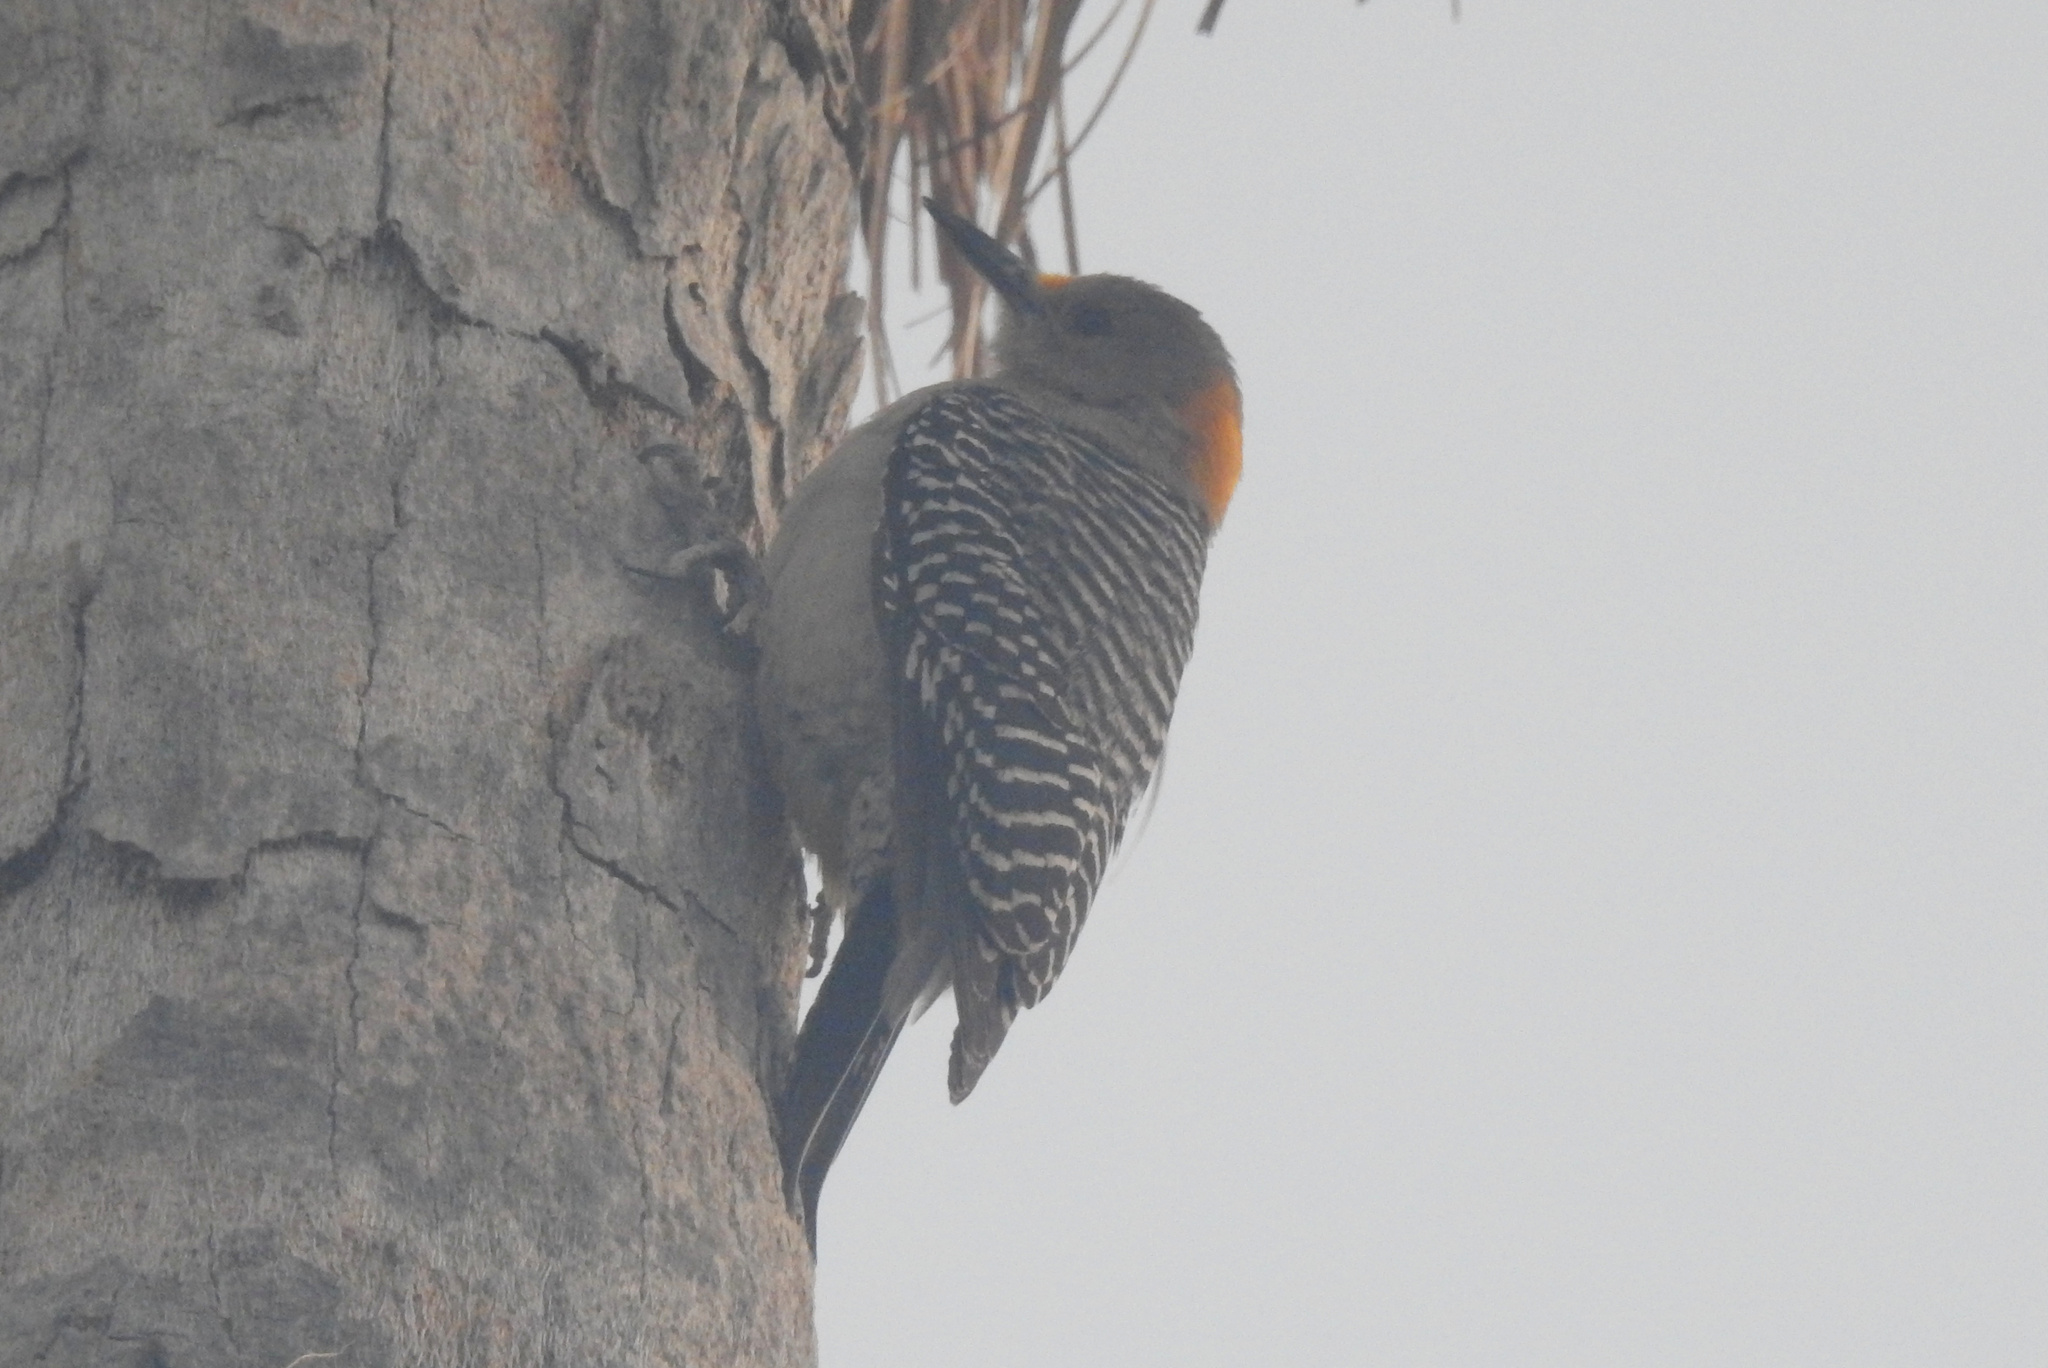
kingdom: Animalia
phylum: Chordata
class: Aves
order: Piciformes
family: Picidae
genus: Melanerpes
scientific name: Melanerpes aurifrons
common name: Golden-fronted woodpecker
